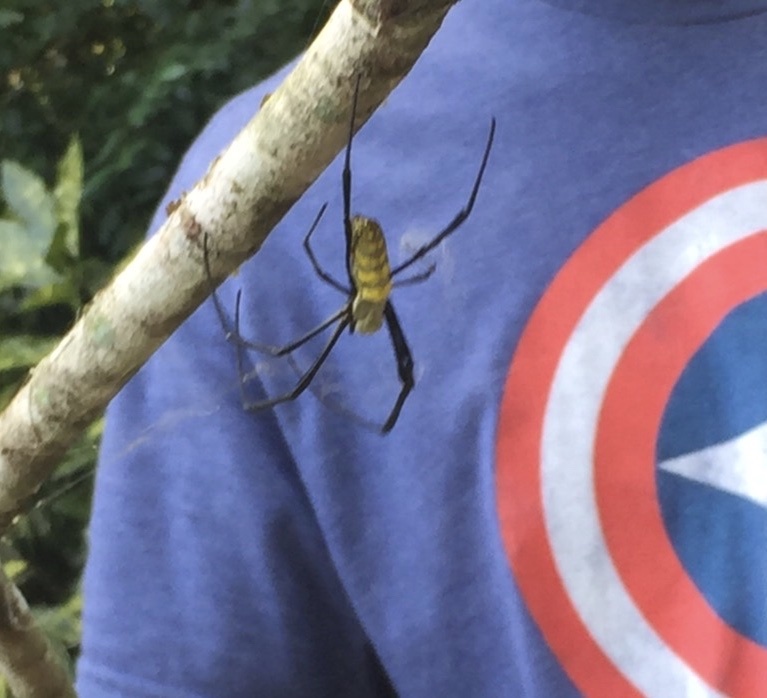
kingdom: Animalia
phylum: Arthropoda
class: Arachnida
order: Araneae
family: Araneidae
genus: Trichonephila
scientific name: Trichonephila clavata
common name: Jorō spider
